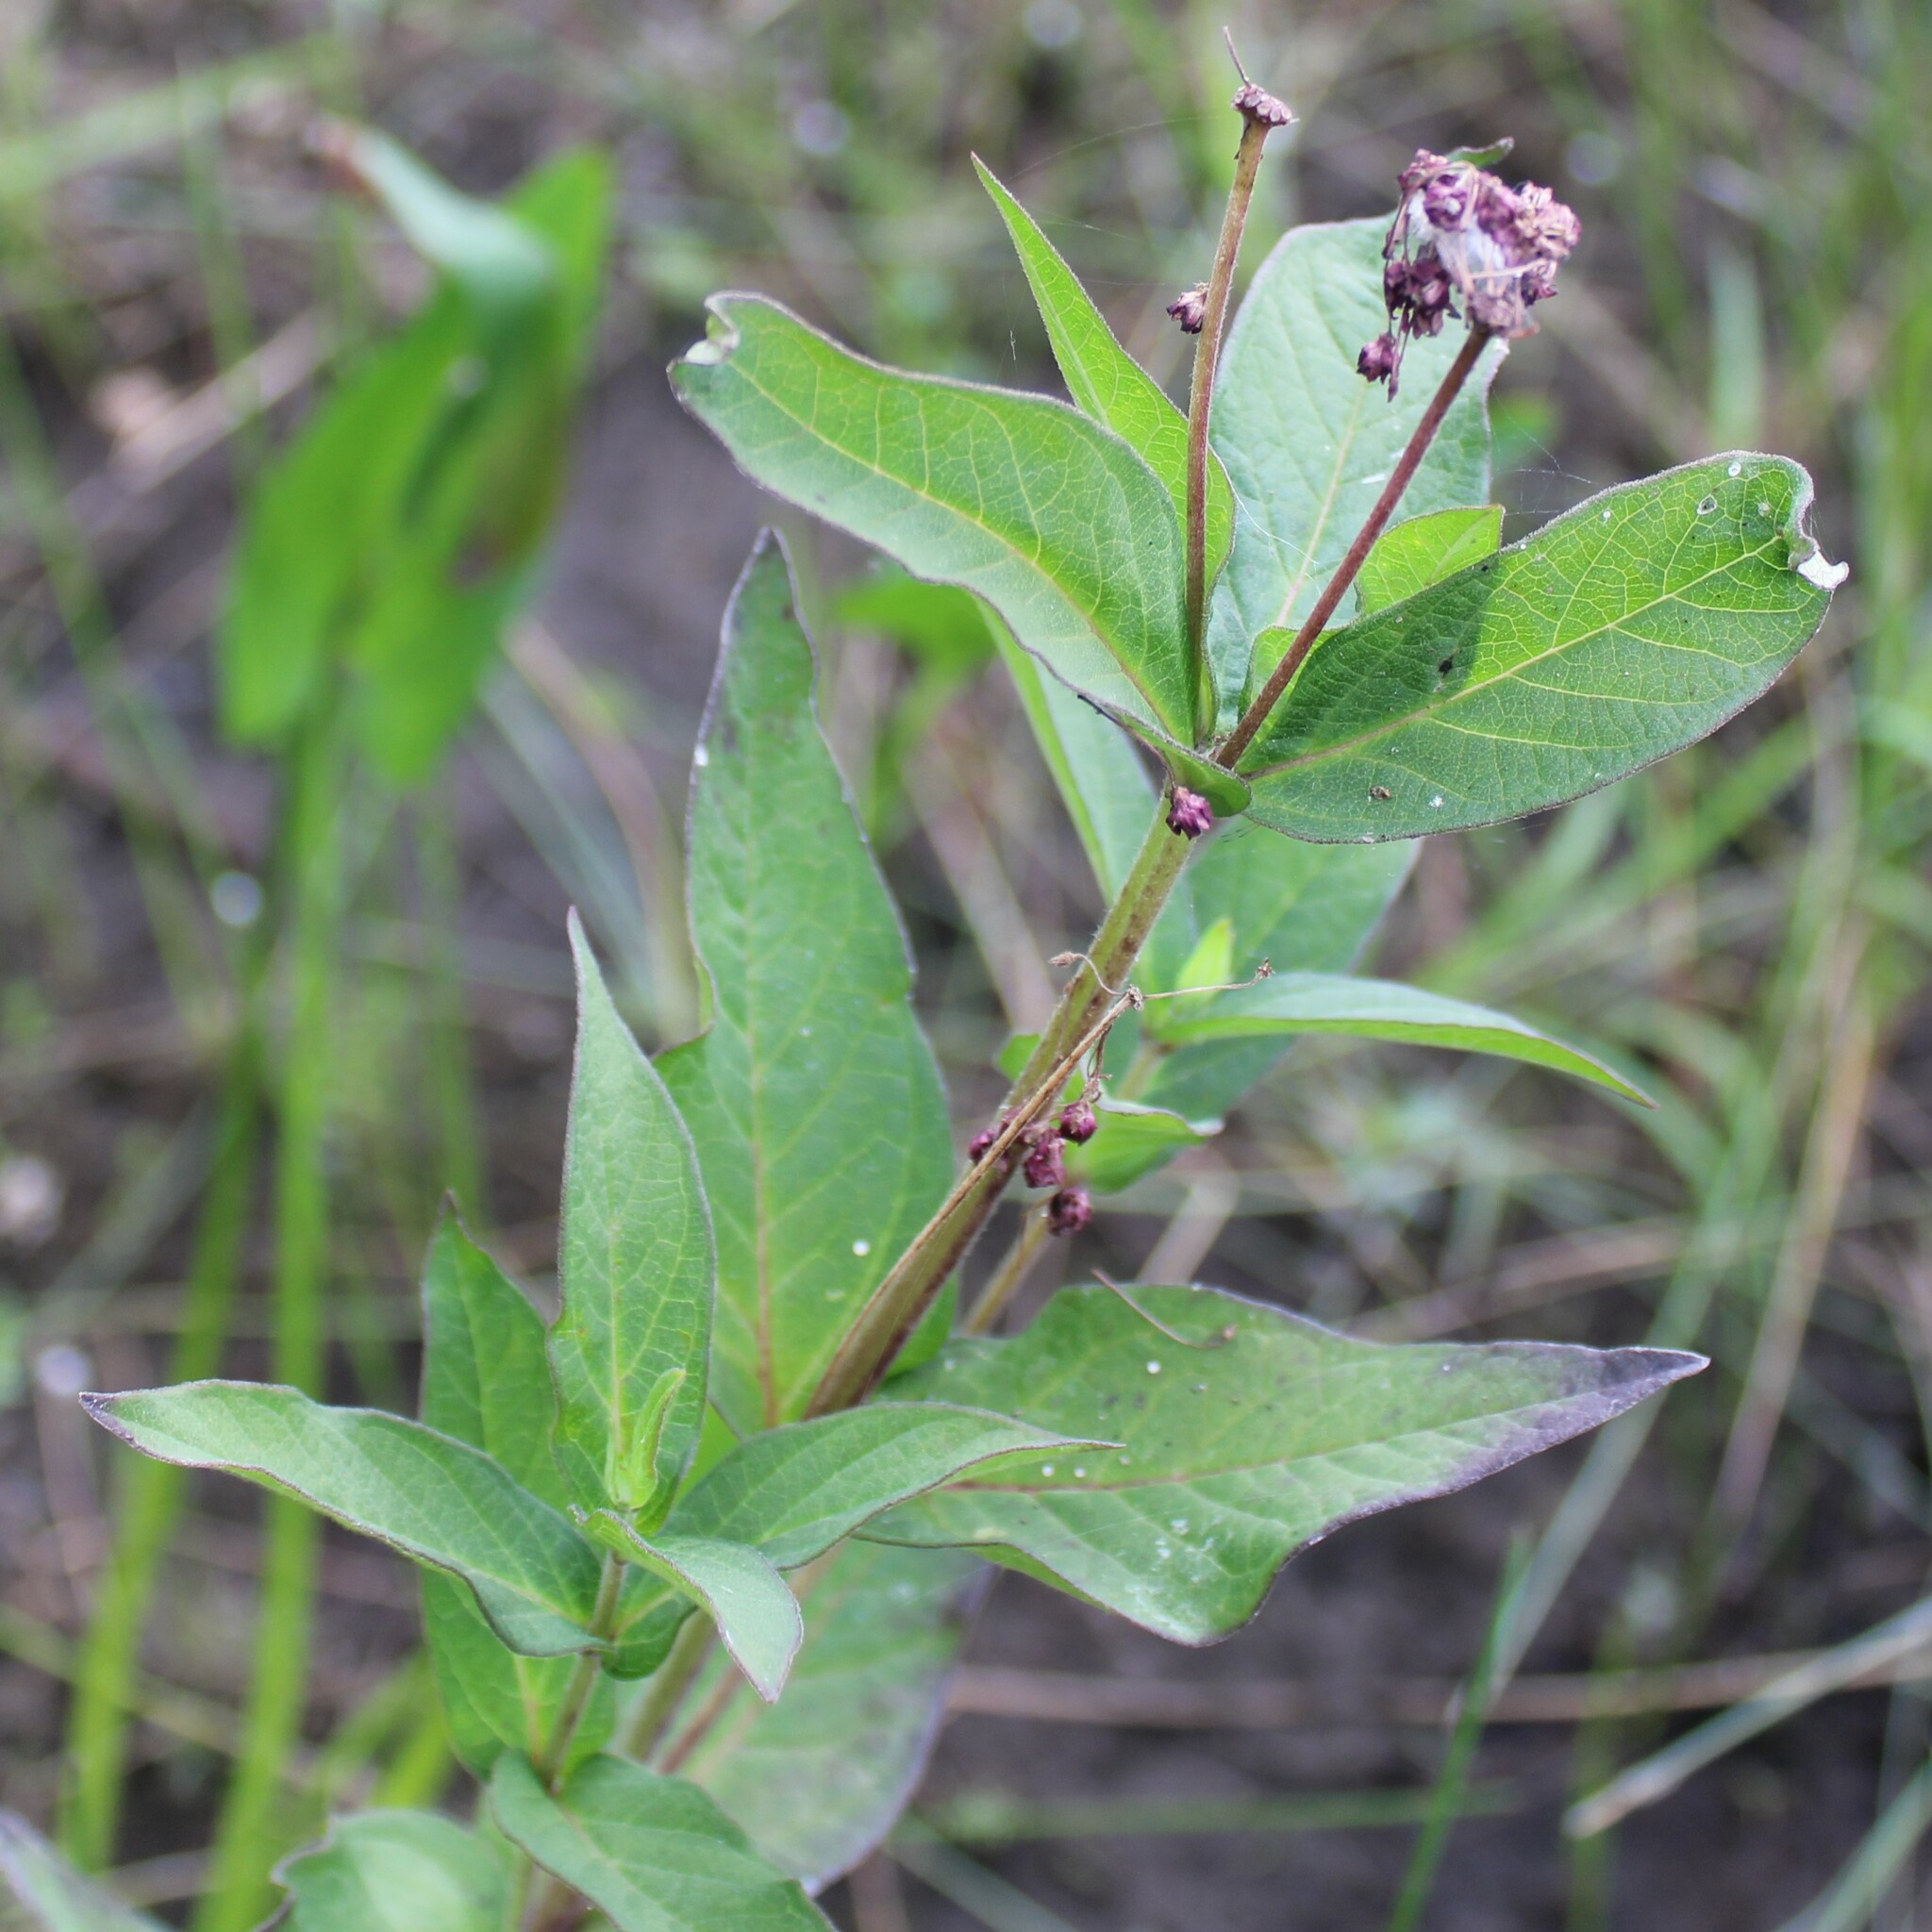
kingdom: Plantae
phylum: Tracheophyta
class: Magnoliopsida
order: Gentianales
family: Apocynaceae
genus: Asclepias
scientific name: Asclepias incarnata
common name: Swamp milkweed
